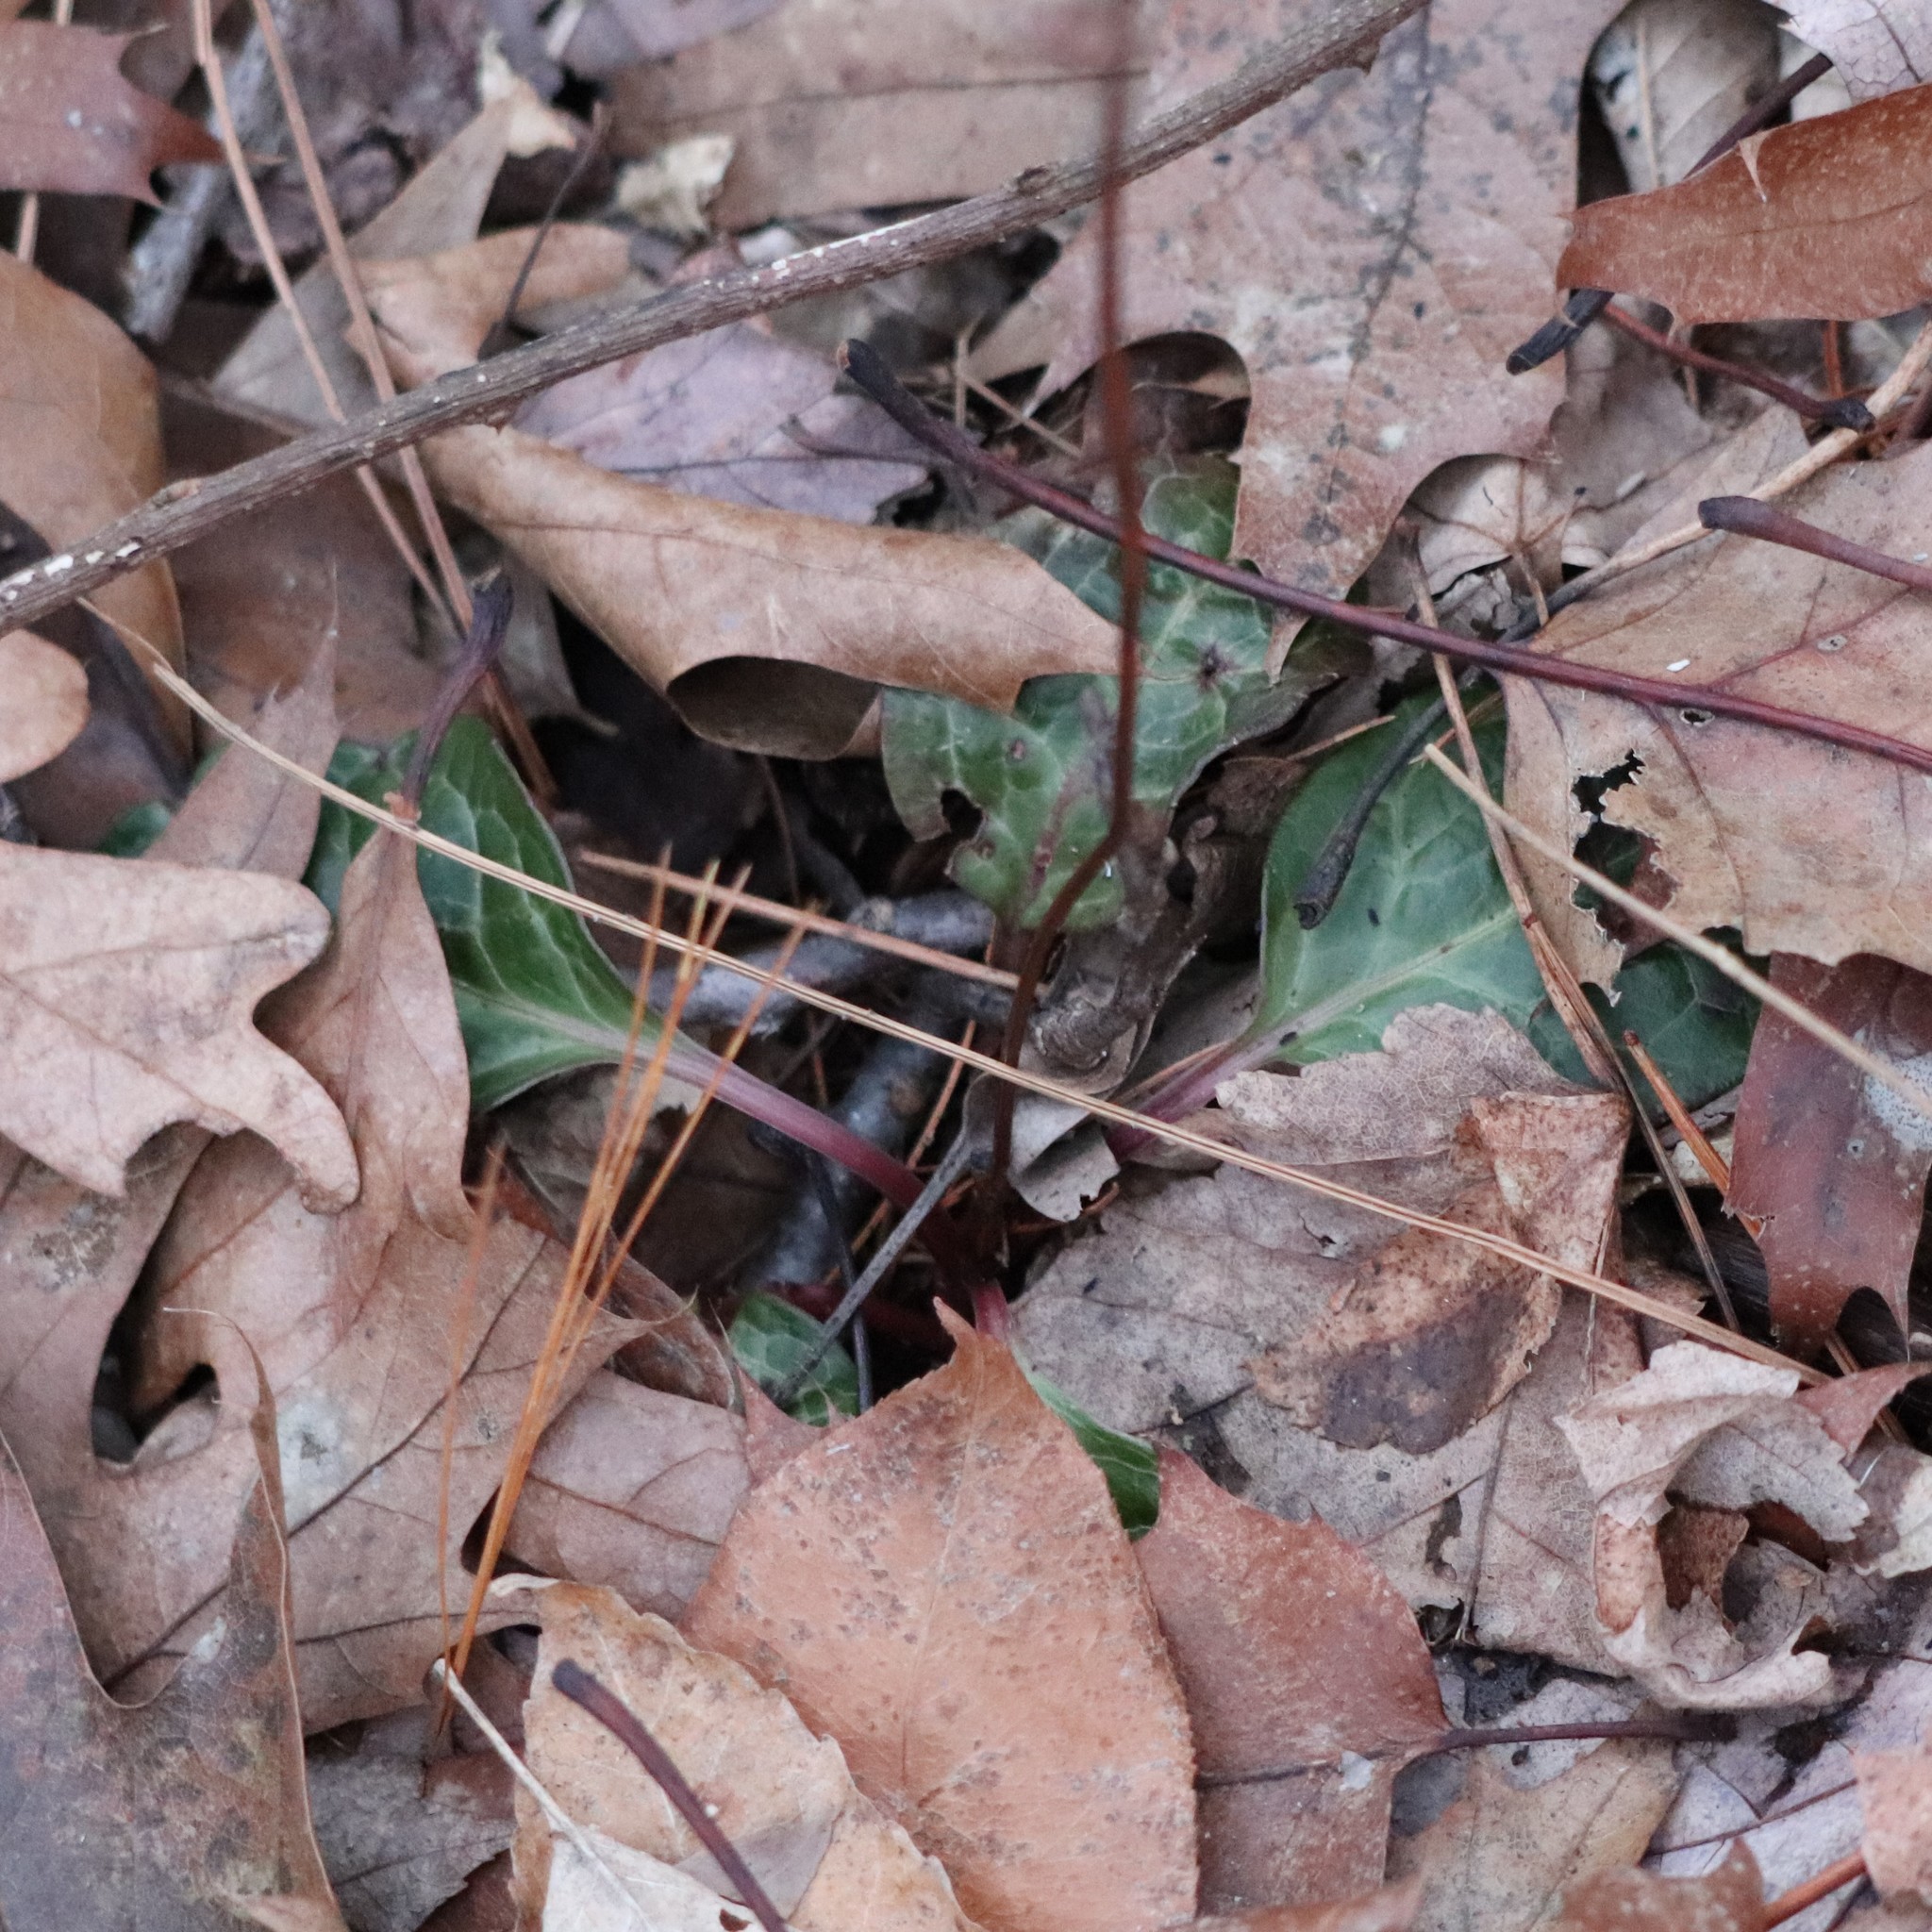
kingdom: Plantae
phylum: Tracheophyta
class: Magnoliopsida
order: Ericales
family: Ericaceae
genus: Pyrola
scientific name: Pyrola americana
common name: American wintergreen
